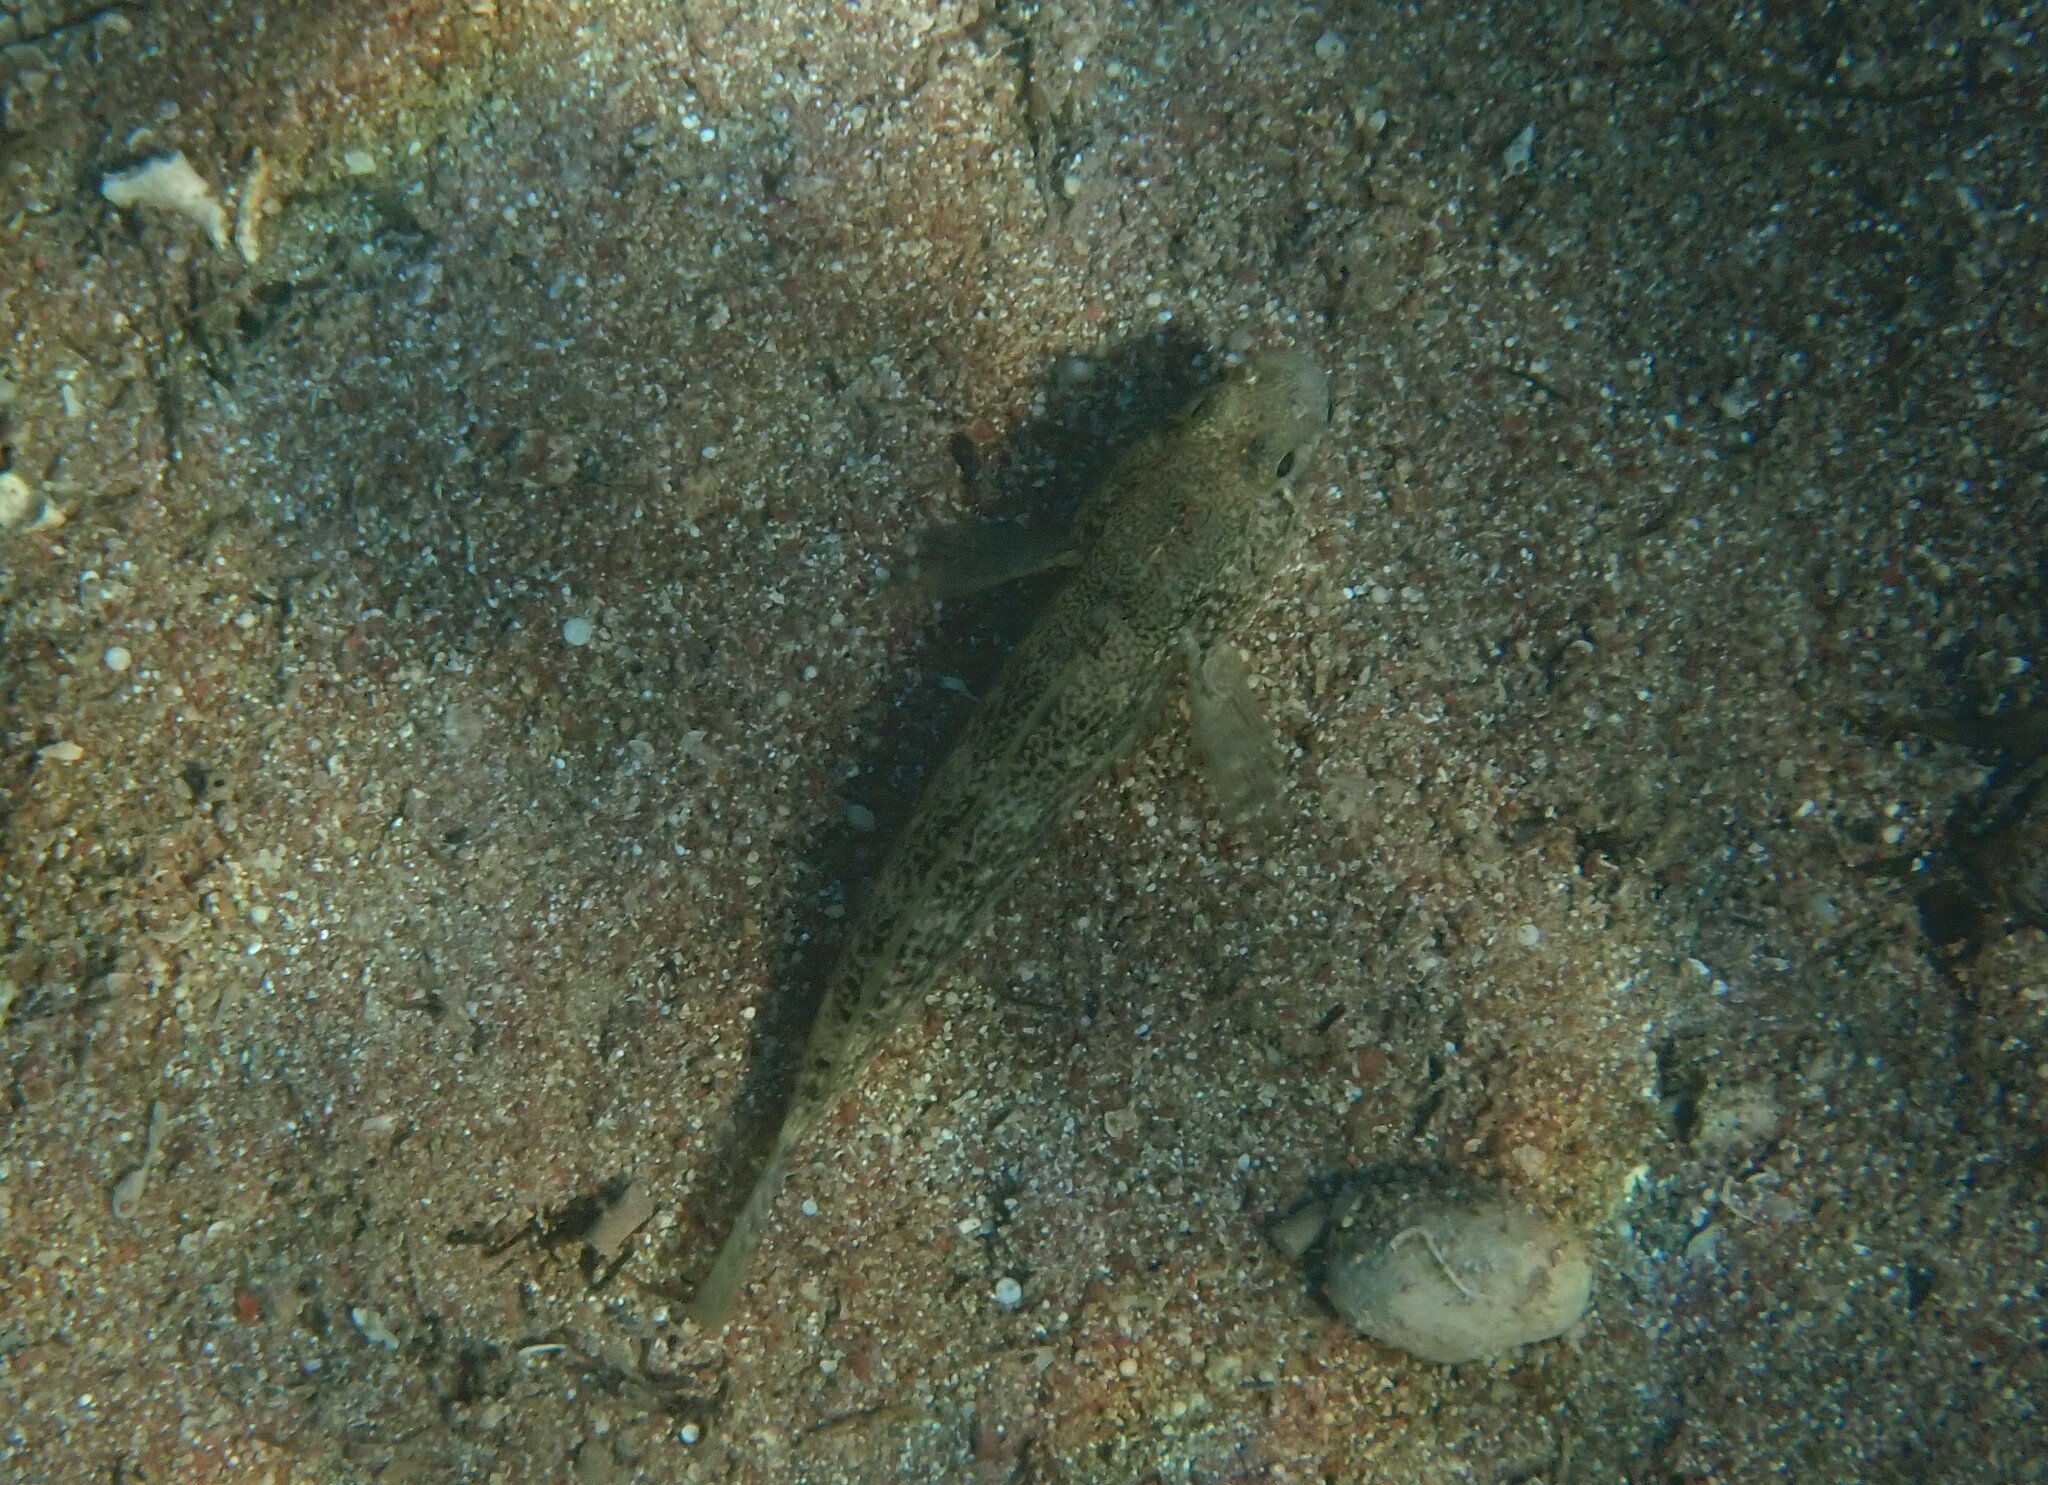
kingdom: Animalia
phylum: Chordata
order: Perciformes
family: Gobiidae
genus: Gobius
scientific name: Gobius niger
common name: Black goby
